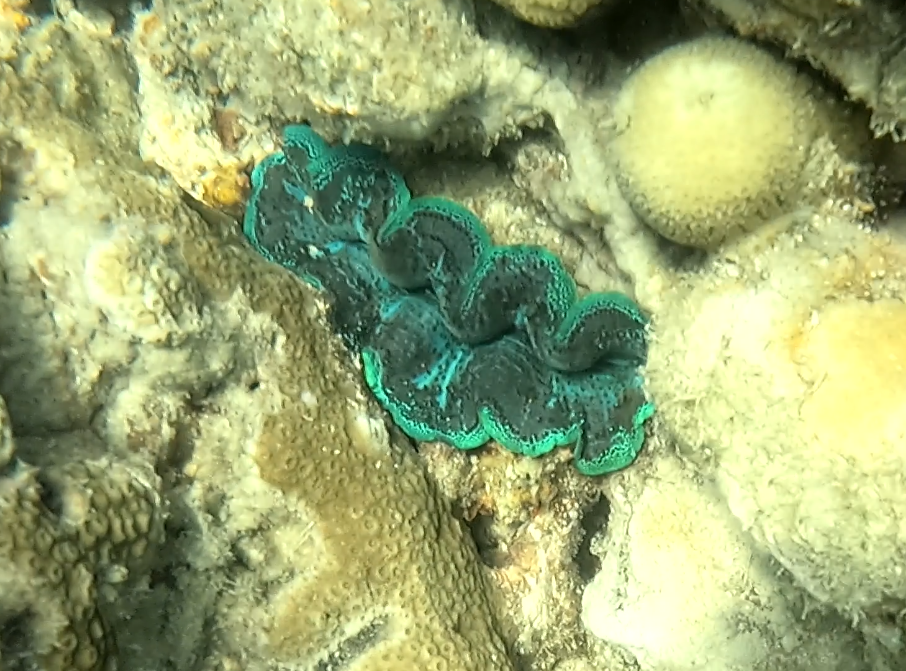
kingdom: Animalia
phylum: Mollusca
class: Bivalvia
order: Cardiida
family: Cardiidae
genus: Tridacna
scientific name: Tridacna crocea
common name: Boring clam
